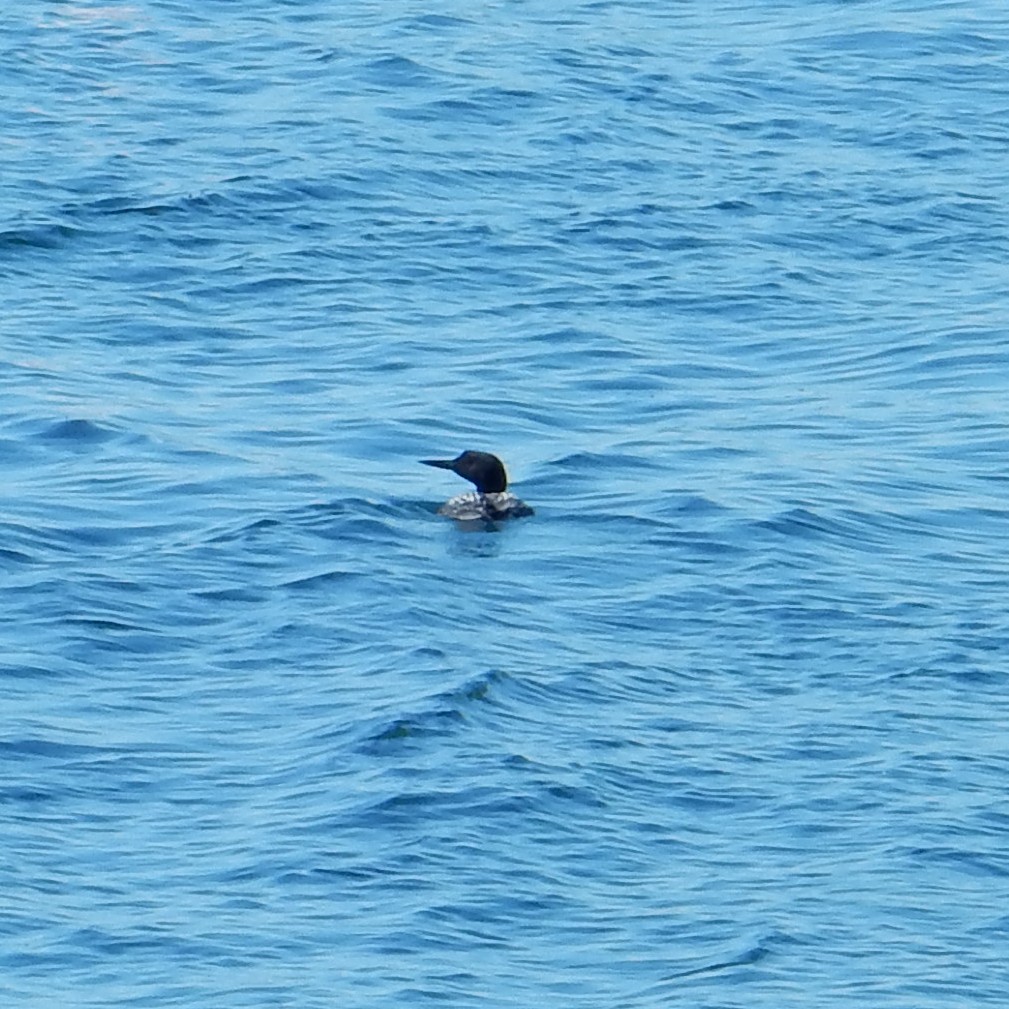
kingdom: Animalia
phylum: Chordata
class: Aves
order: Gaviiformes
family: Gaviidae
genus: Gavia
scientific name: Gavia immer
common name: Common loon
